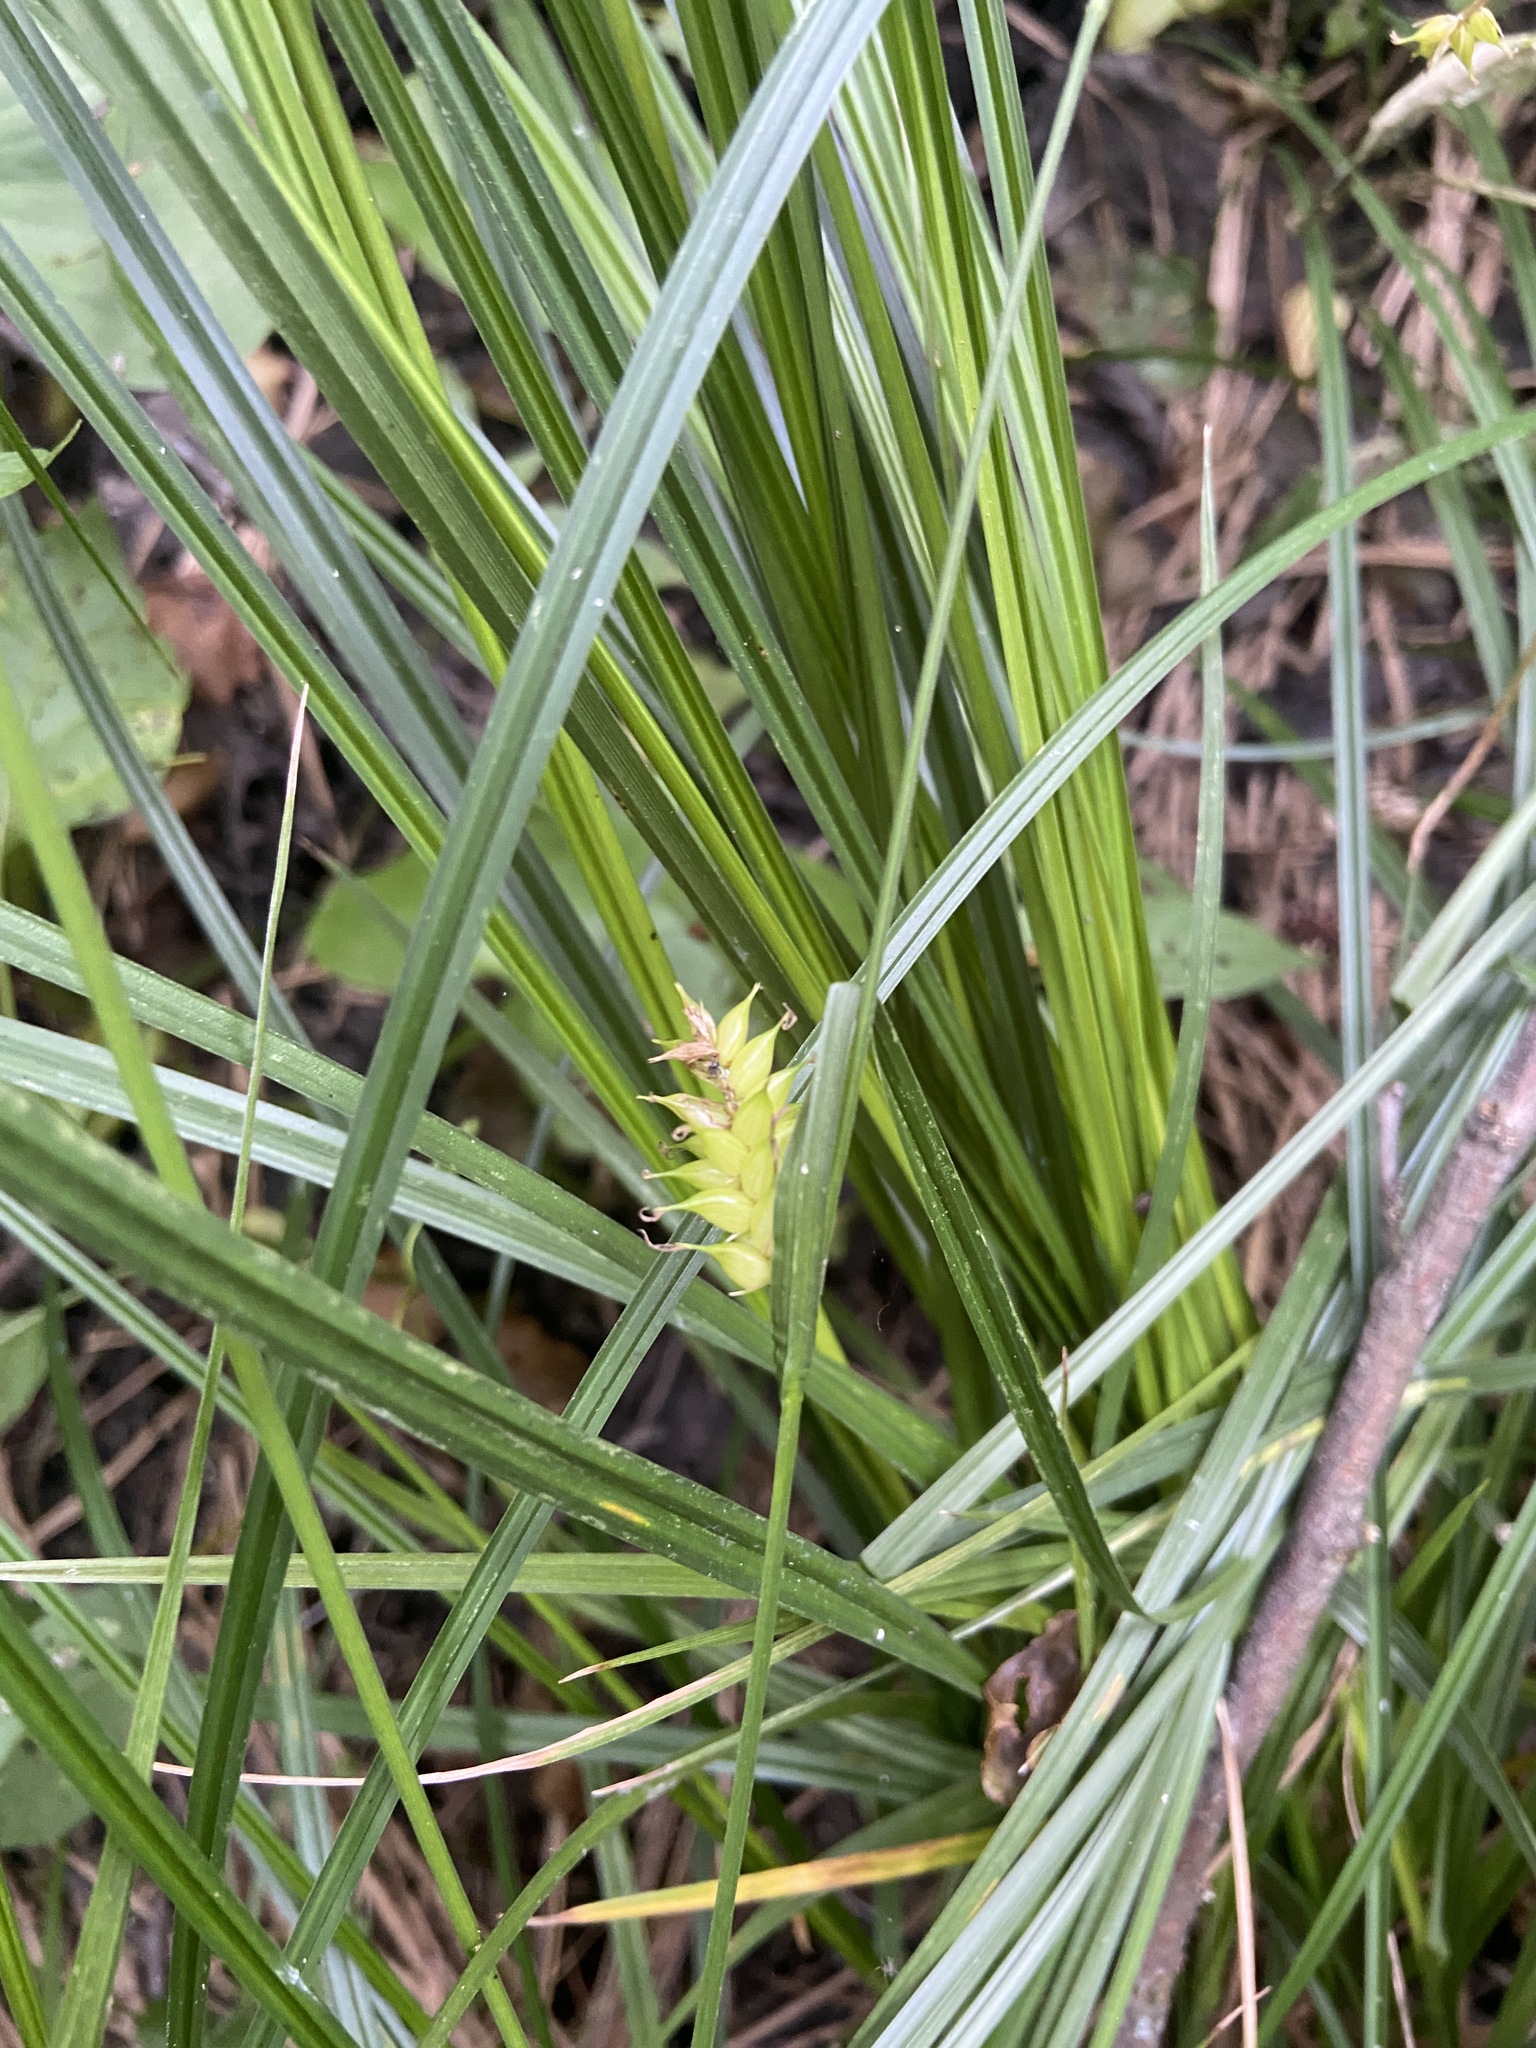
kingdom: Plantae
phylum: Tracheophyta
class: Liliopsida
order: Poales
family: Cyperaceae
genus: Carex
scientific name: Carex vesicaria
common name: Bladder-sedge
